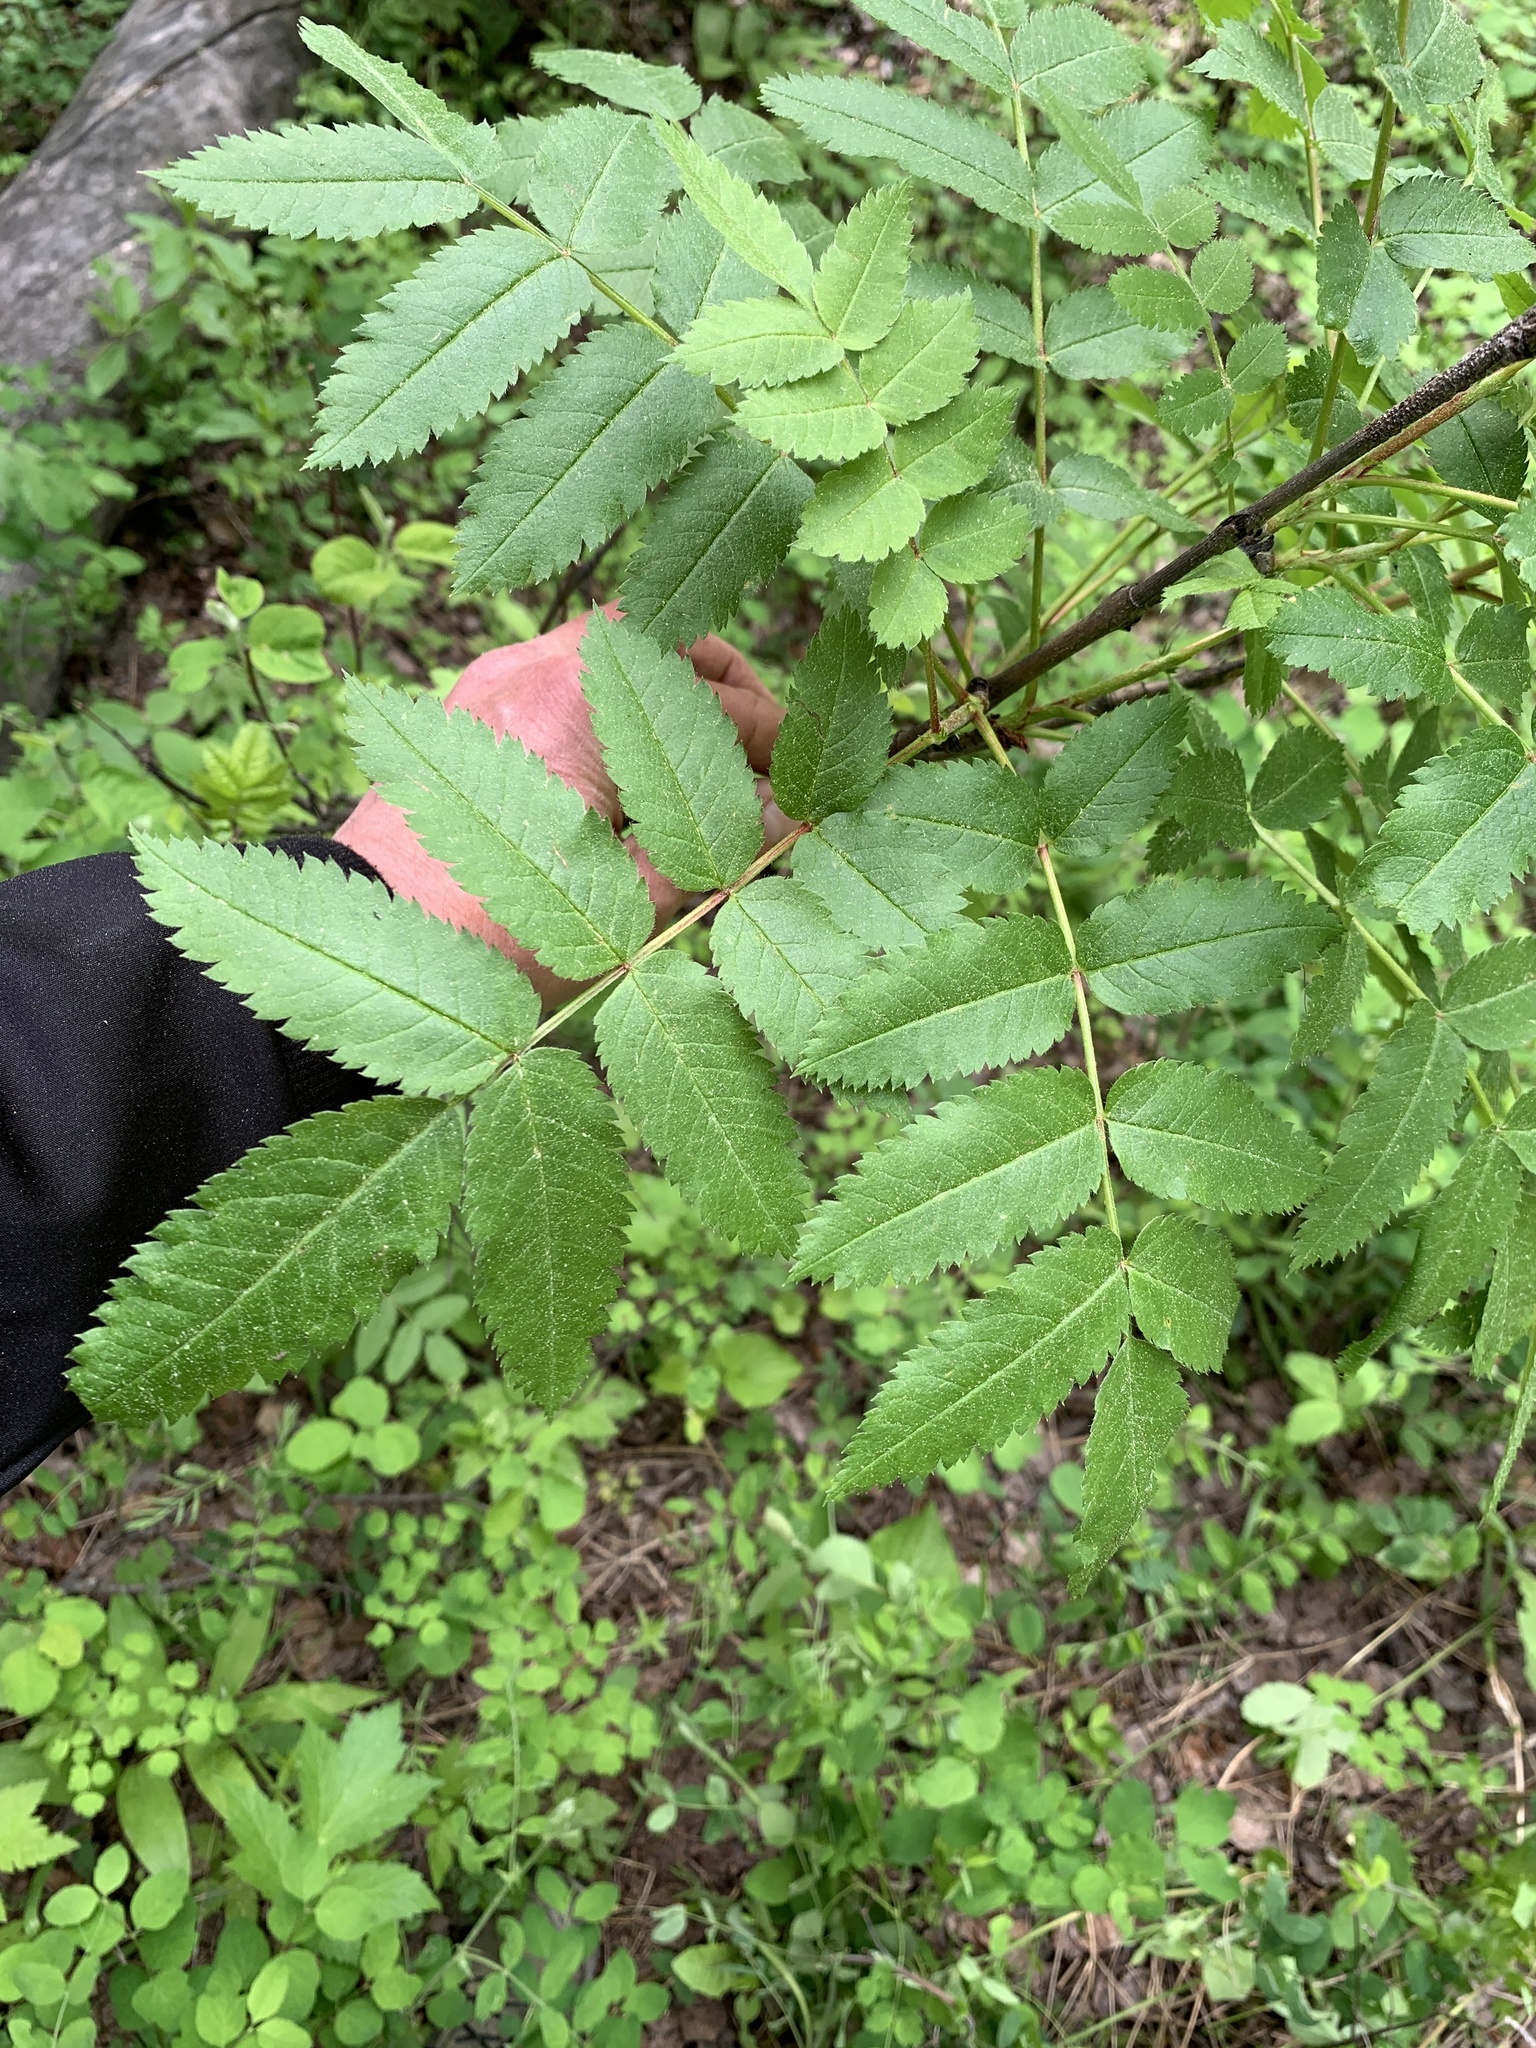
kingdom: Plantae
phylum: Tracheophyta
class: Magnoliopsida
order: Rosales
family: Rosaceae
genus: Sorbus
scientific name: Sorbus scopulina
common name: Greene's mountain-ash
